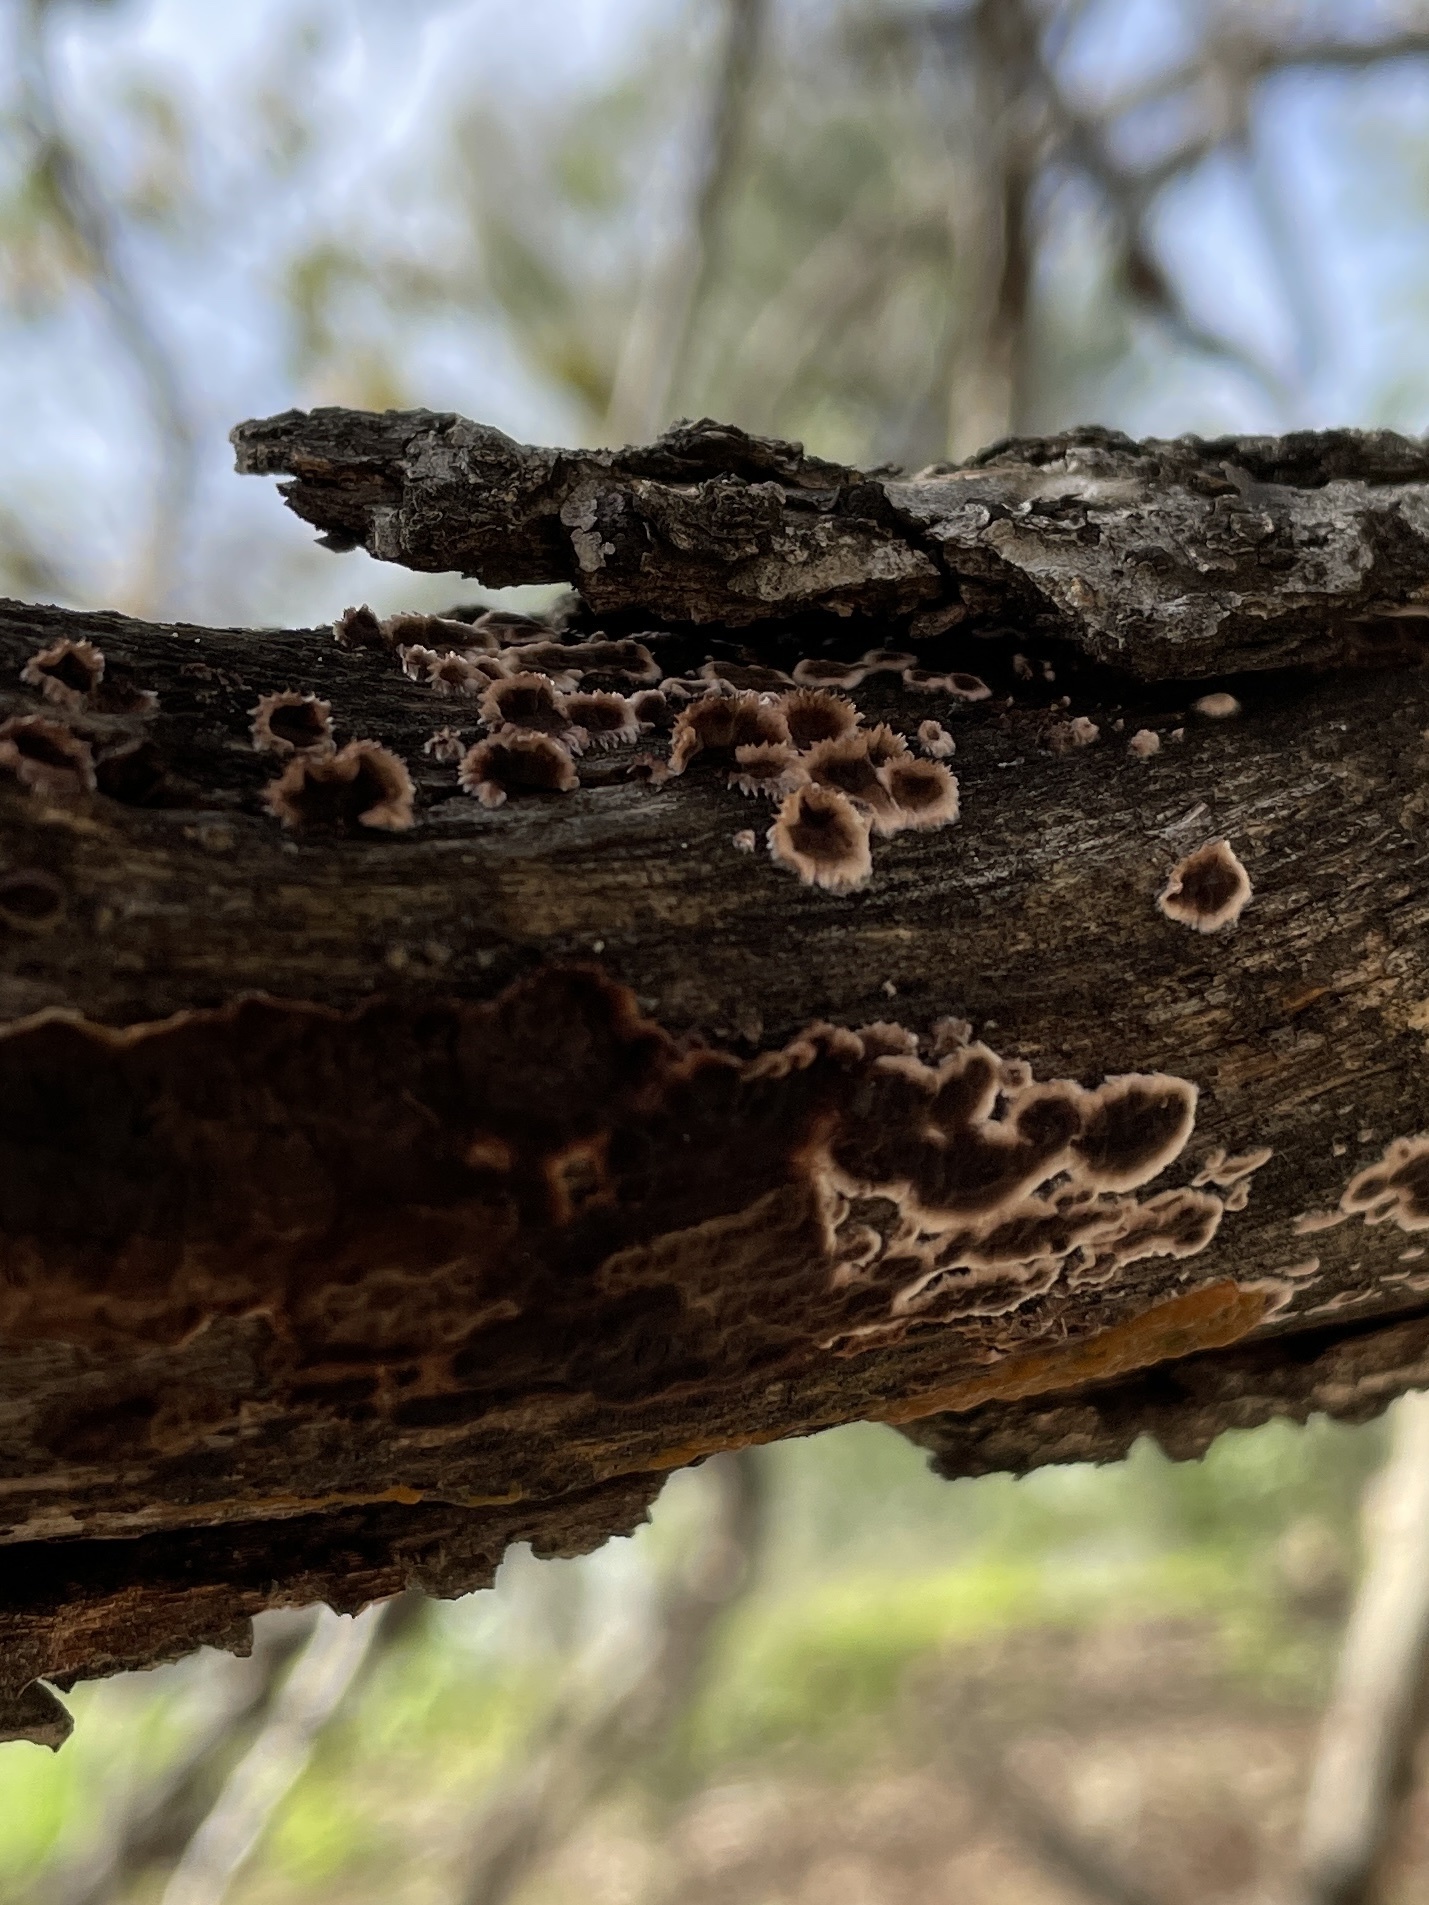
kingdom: Fungi
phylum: Basidiomycota
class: Agaricomycetes
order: Russulales
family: Peniophoraceae
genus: Peniophora
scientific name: Peniophora albobadia
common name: Giraffe spots
